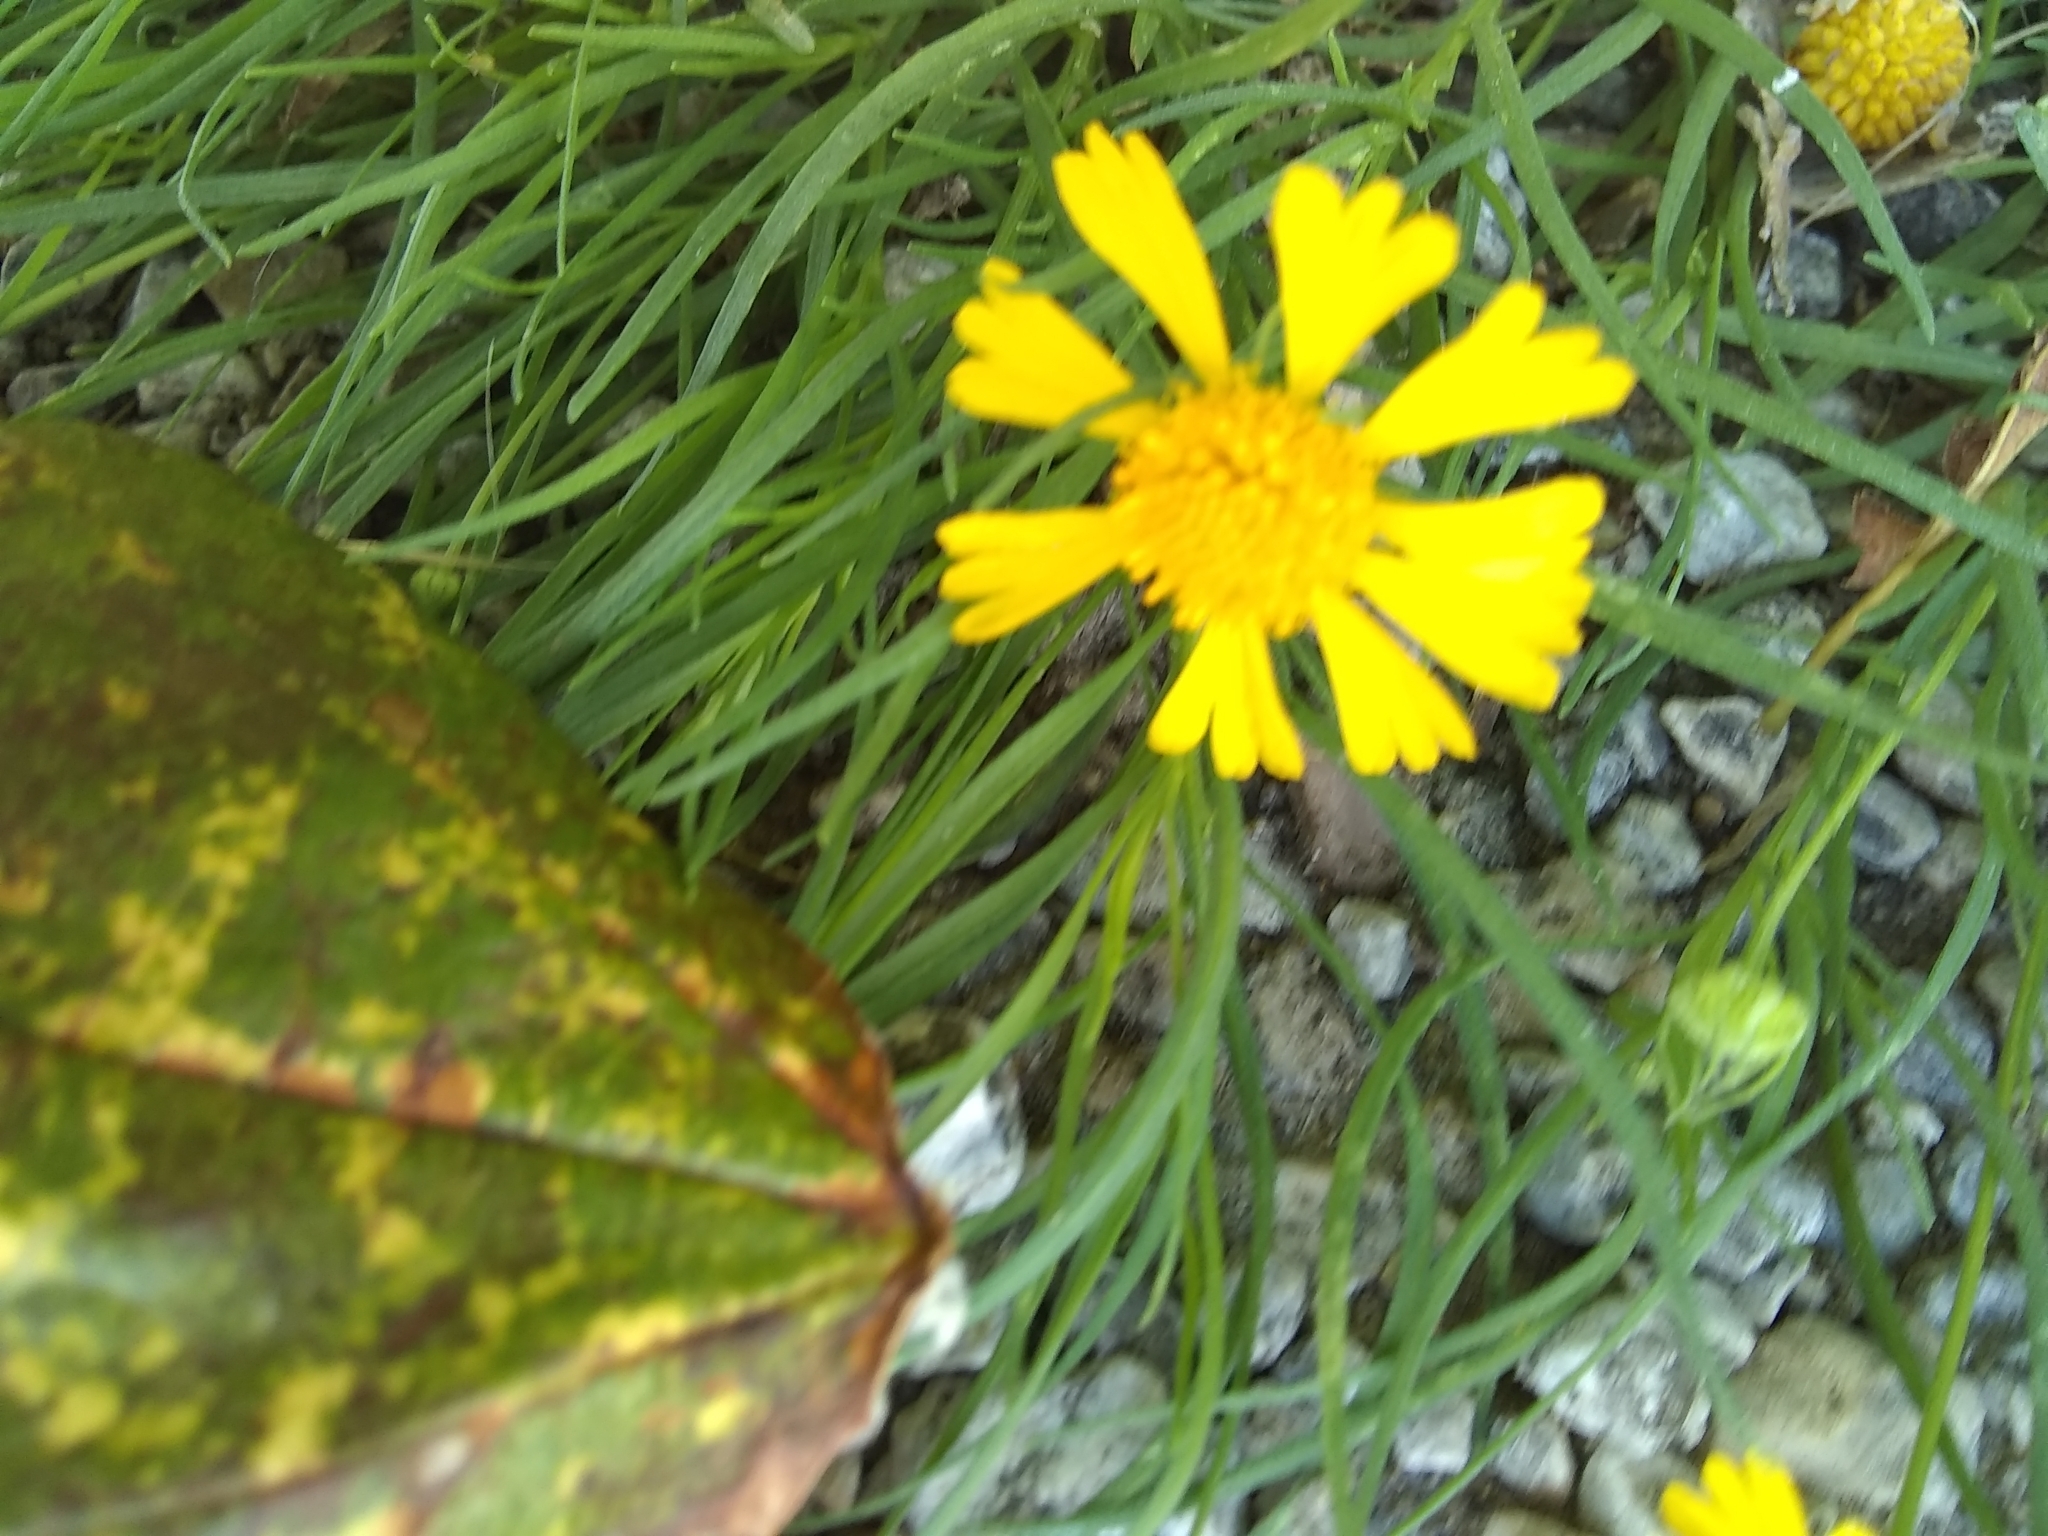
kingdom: Plantae
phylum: Tracheophyta
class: Magnoliopsida
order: Asterales
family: Asteraceae
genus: Helenium
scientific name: Helenium amarum
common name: Bitter sneezeweed
